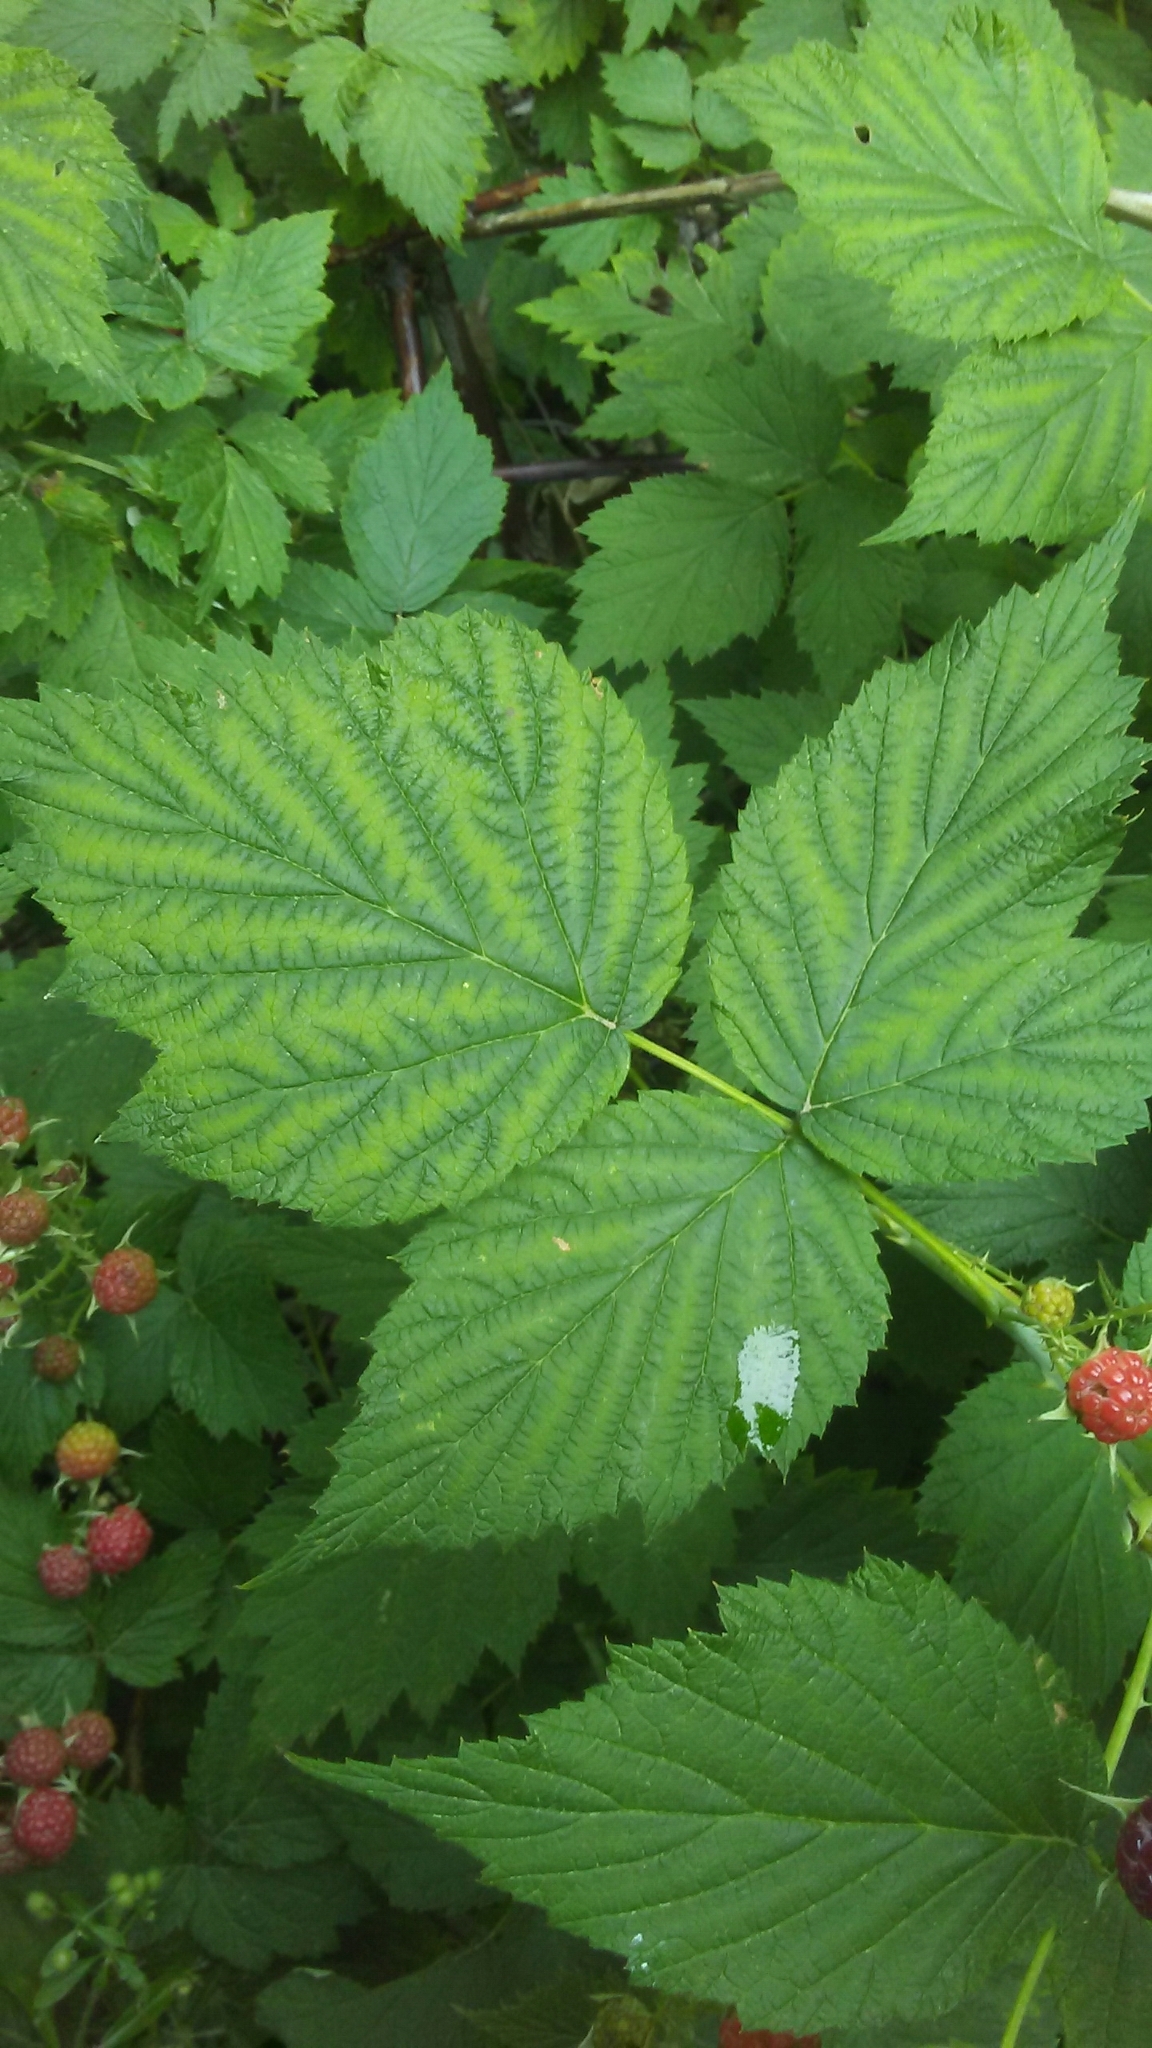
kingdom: Plantae
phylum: Tracheophyta
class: Magnoliopsida
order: Rosales
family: Rosaceae
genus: Rubus
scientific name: Rubus occidentalis
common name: Black raspberry
